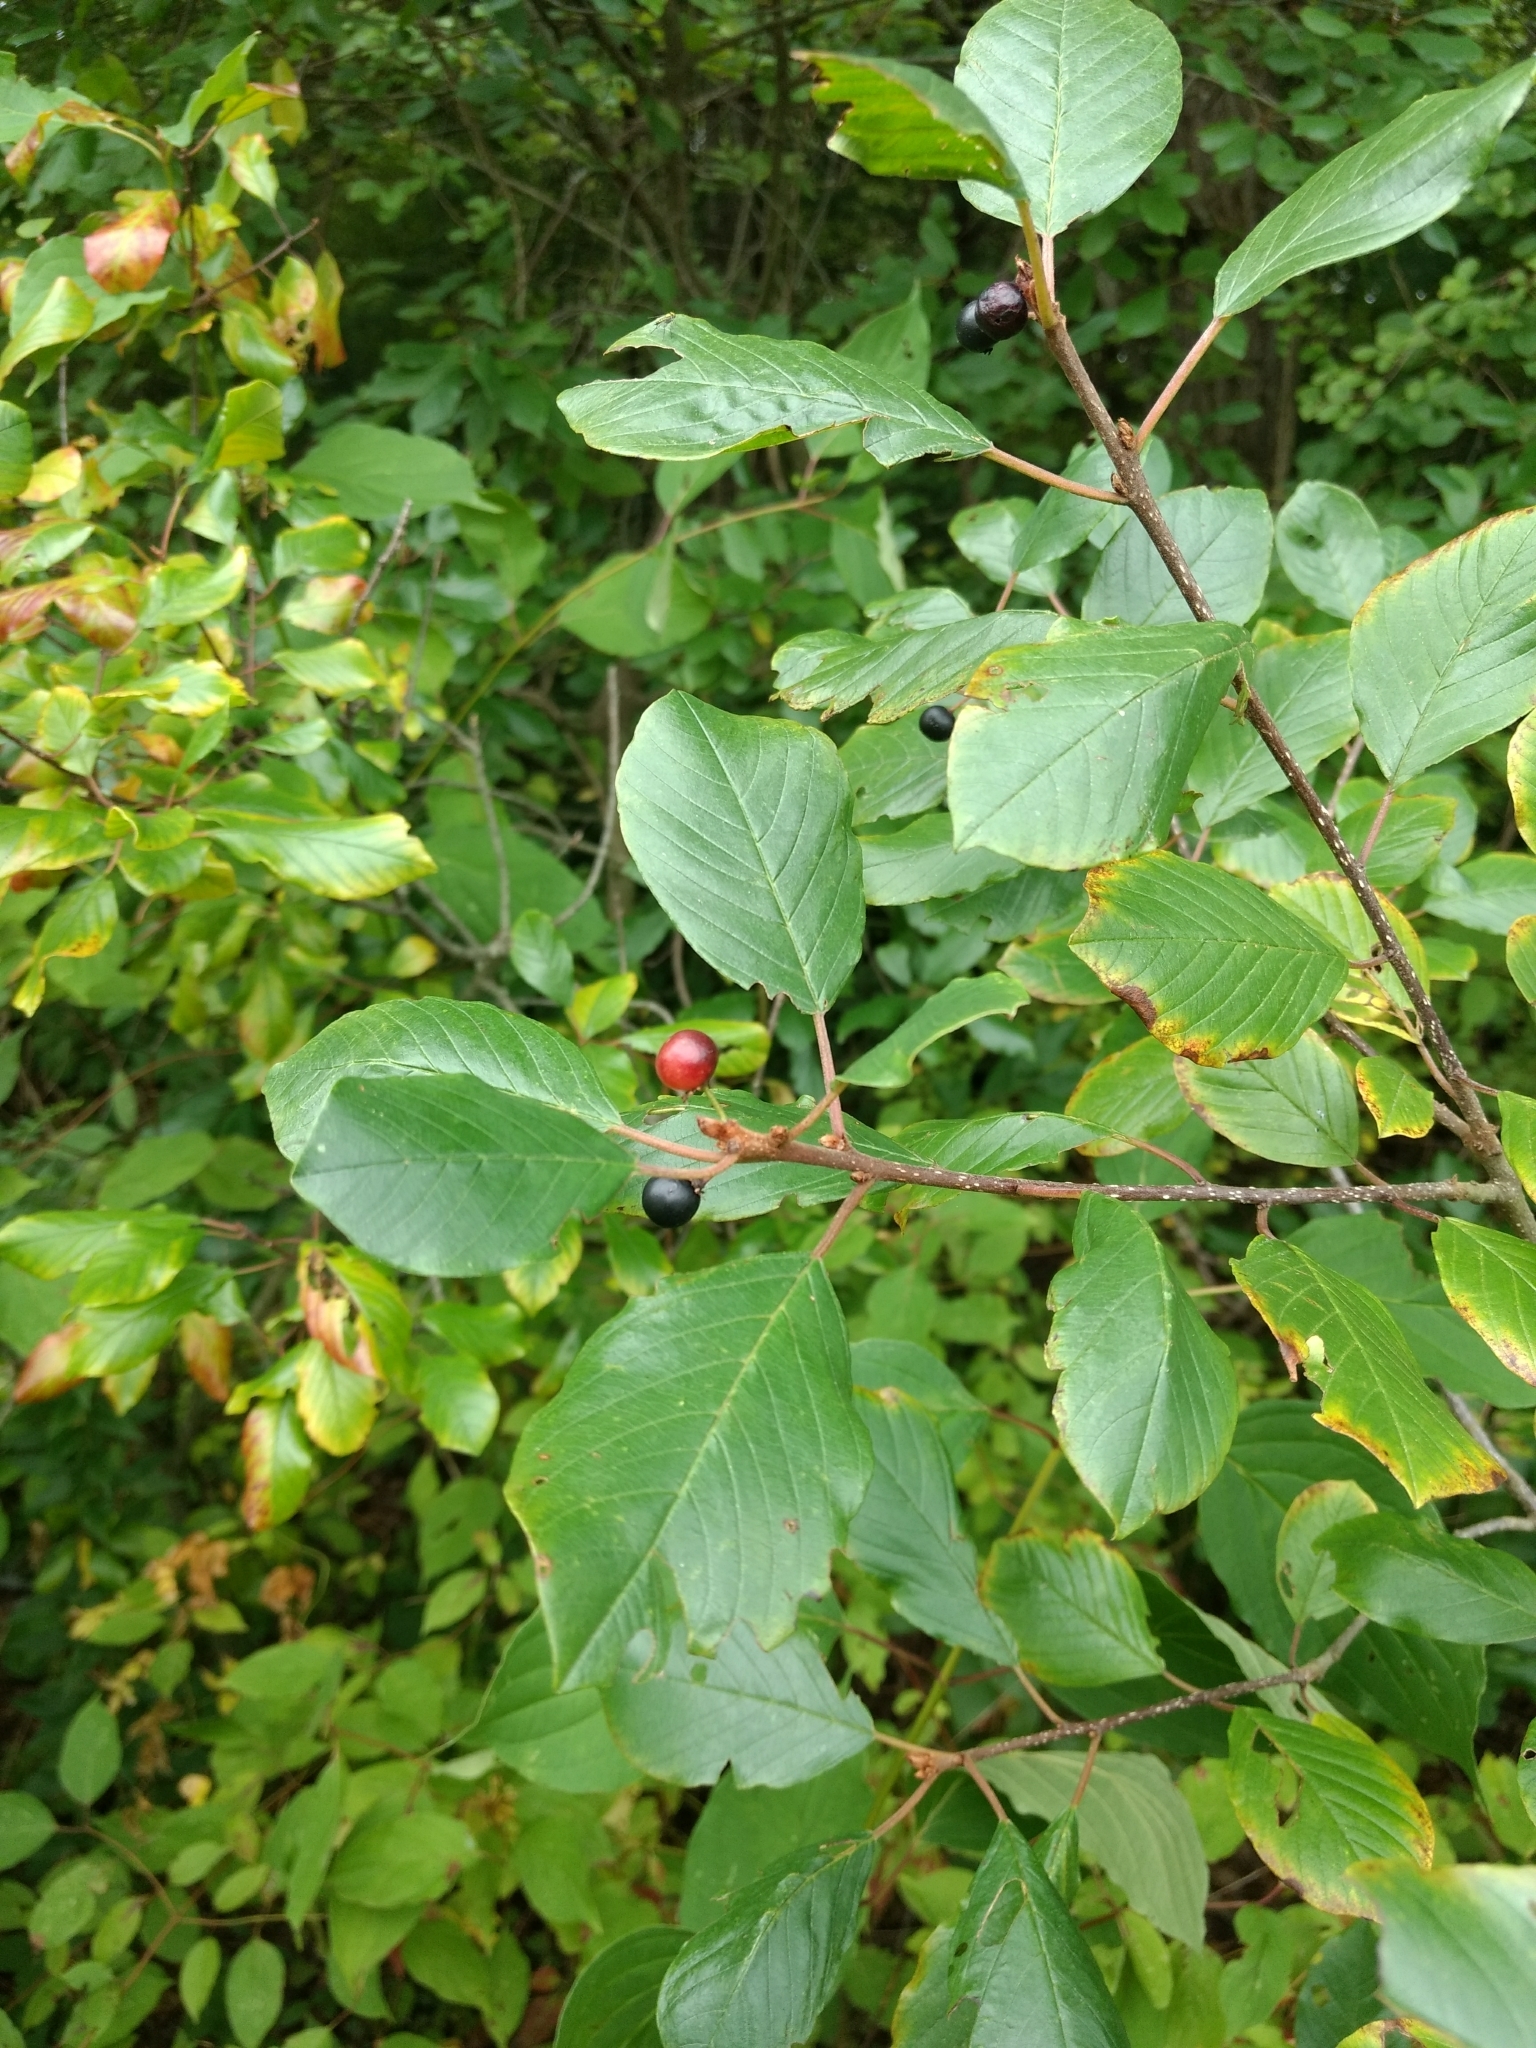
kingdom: Plantae
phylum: Tracheophyta
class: Magnoliopsida
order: Rosales
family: Rhamnaceae
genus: Frangula
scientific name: Frangula alnus
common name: Alder buckthorn
